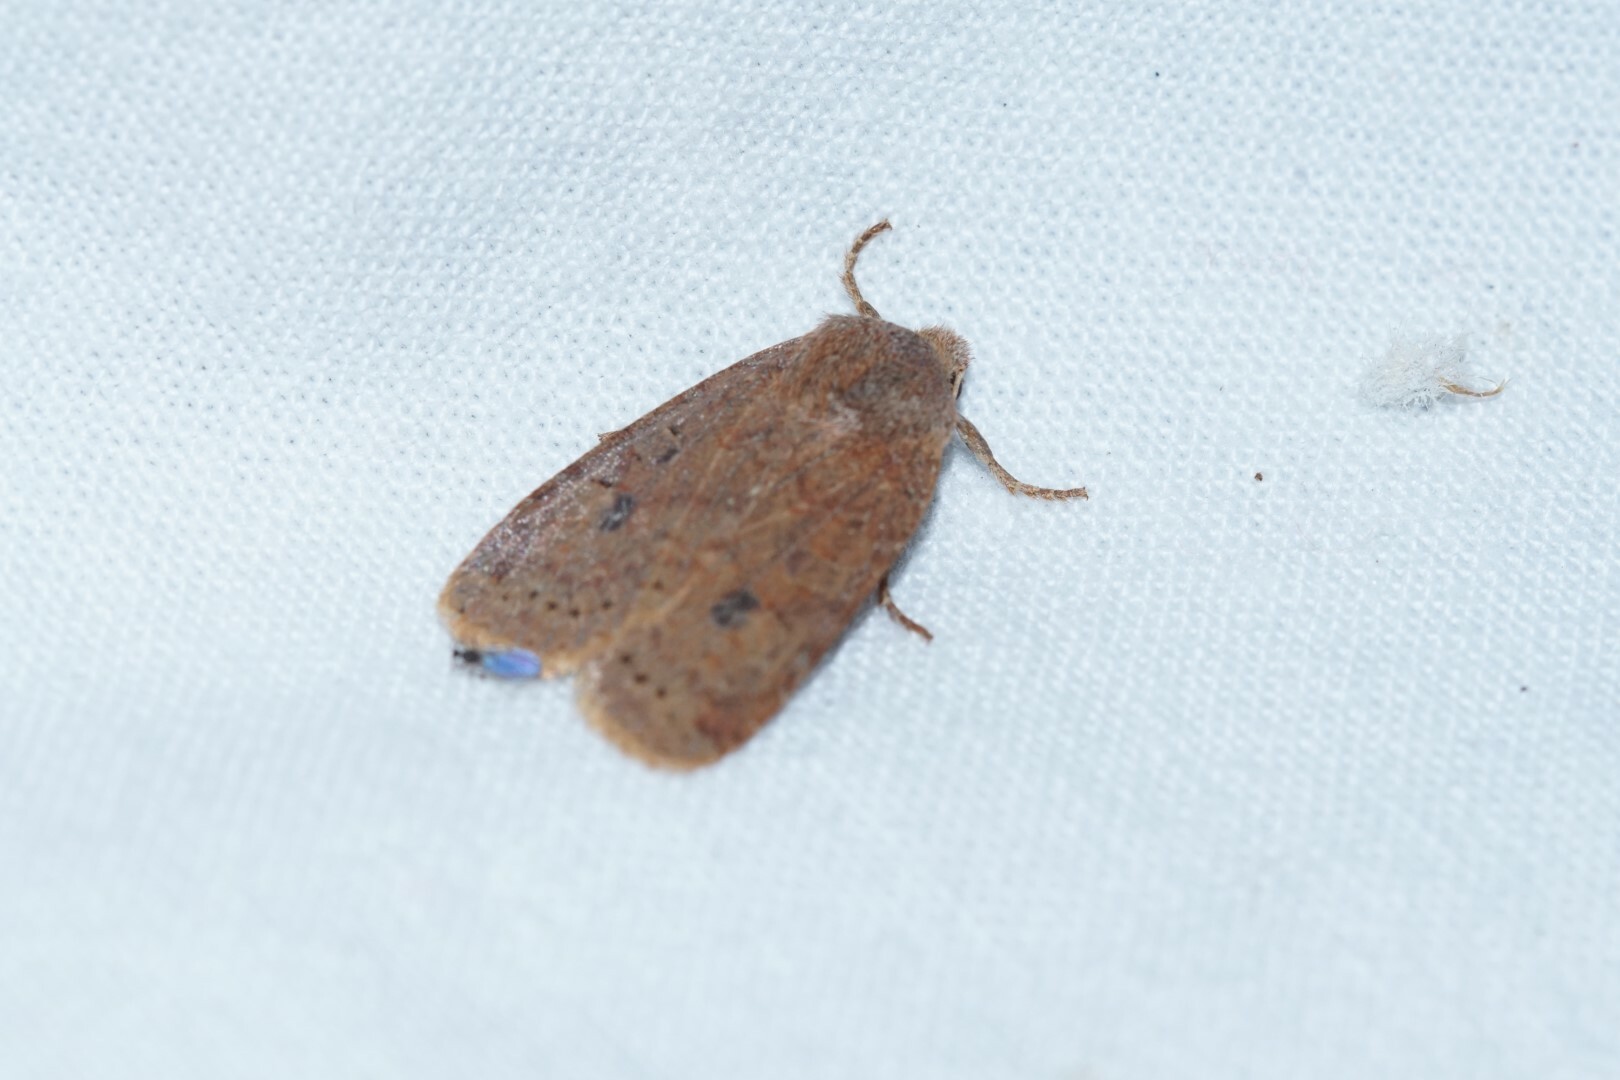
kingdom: Animalia
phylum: Arthropoda
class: Insecta
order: Lepidoptera
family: Noctuidae
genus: Conistra
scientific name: Conistra vaccinii
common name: Chestnut
